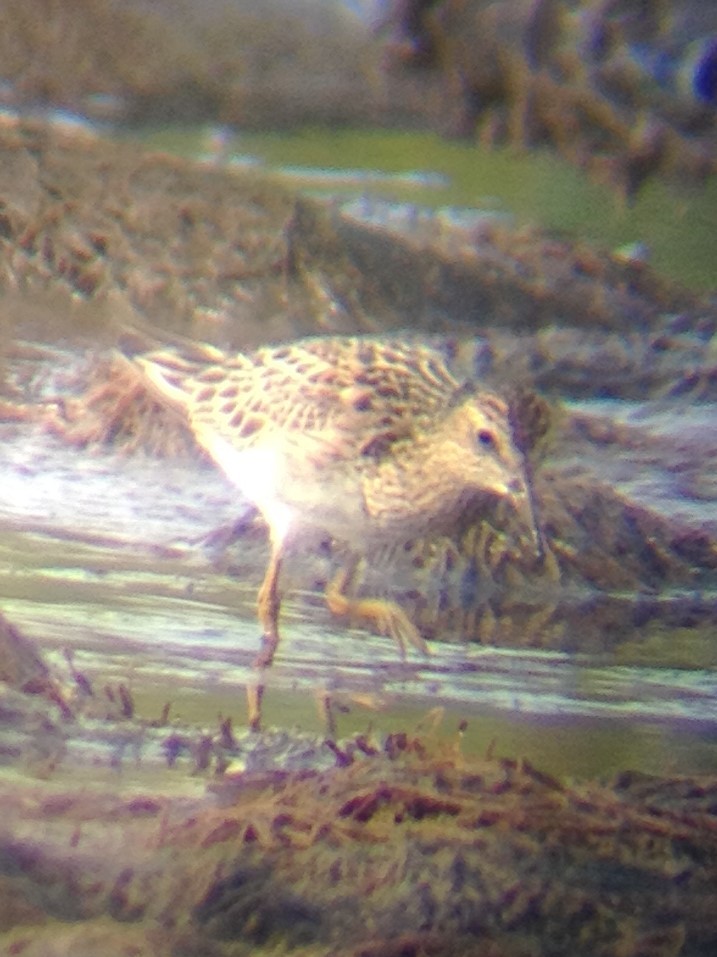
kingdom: Animalia
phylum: Chordata
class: Aves
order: Charadriiformes
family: Scolopacidae
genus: Calidris
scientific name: Calidris melanotos
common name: Pectoral sandpiper
